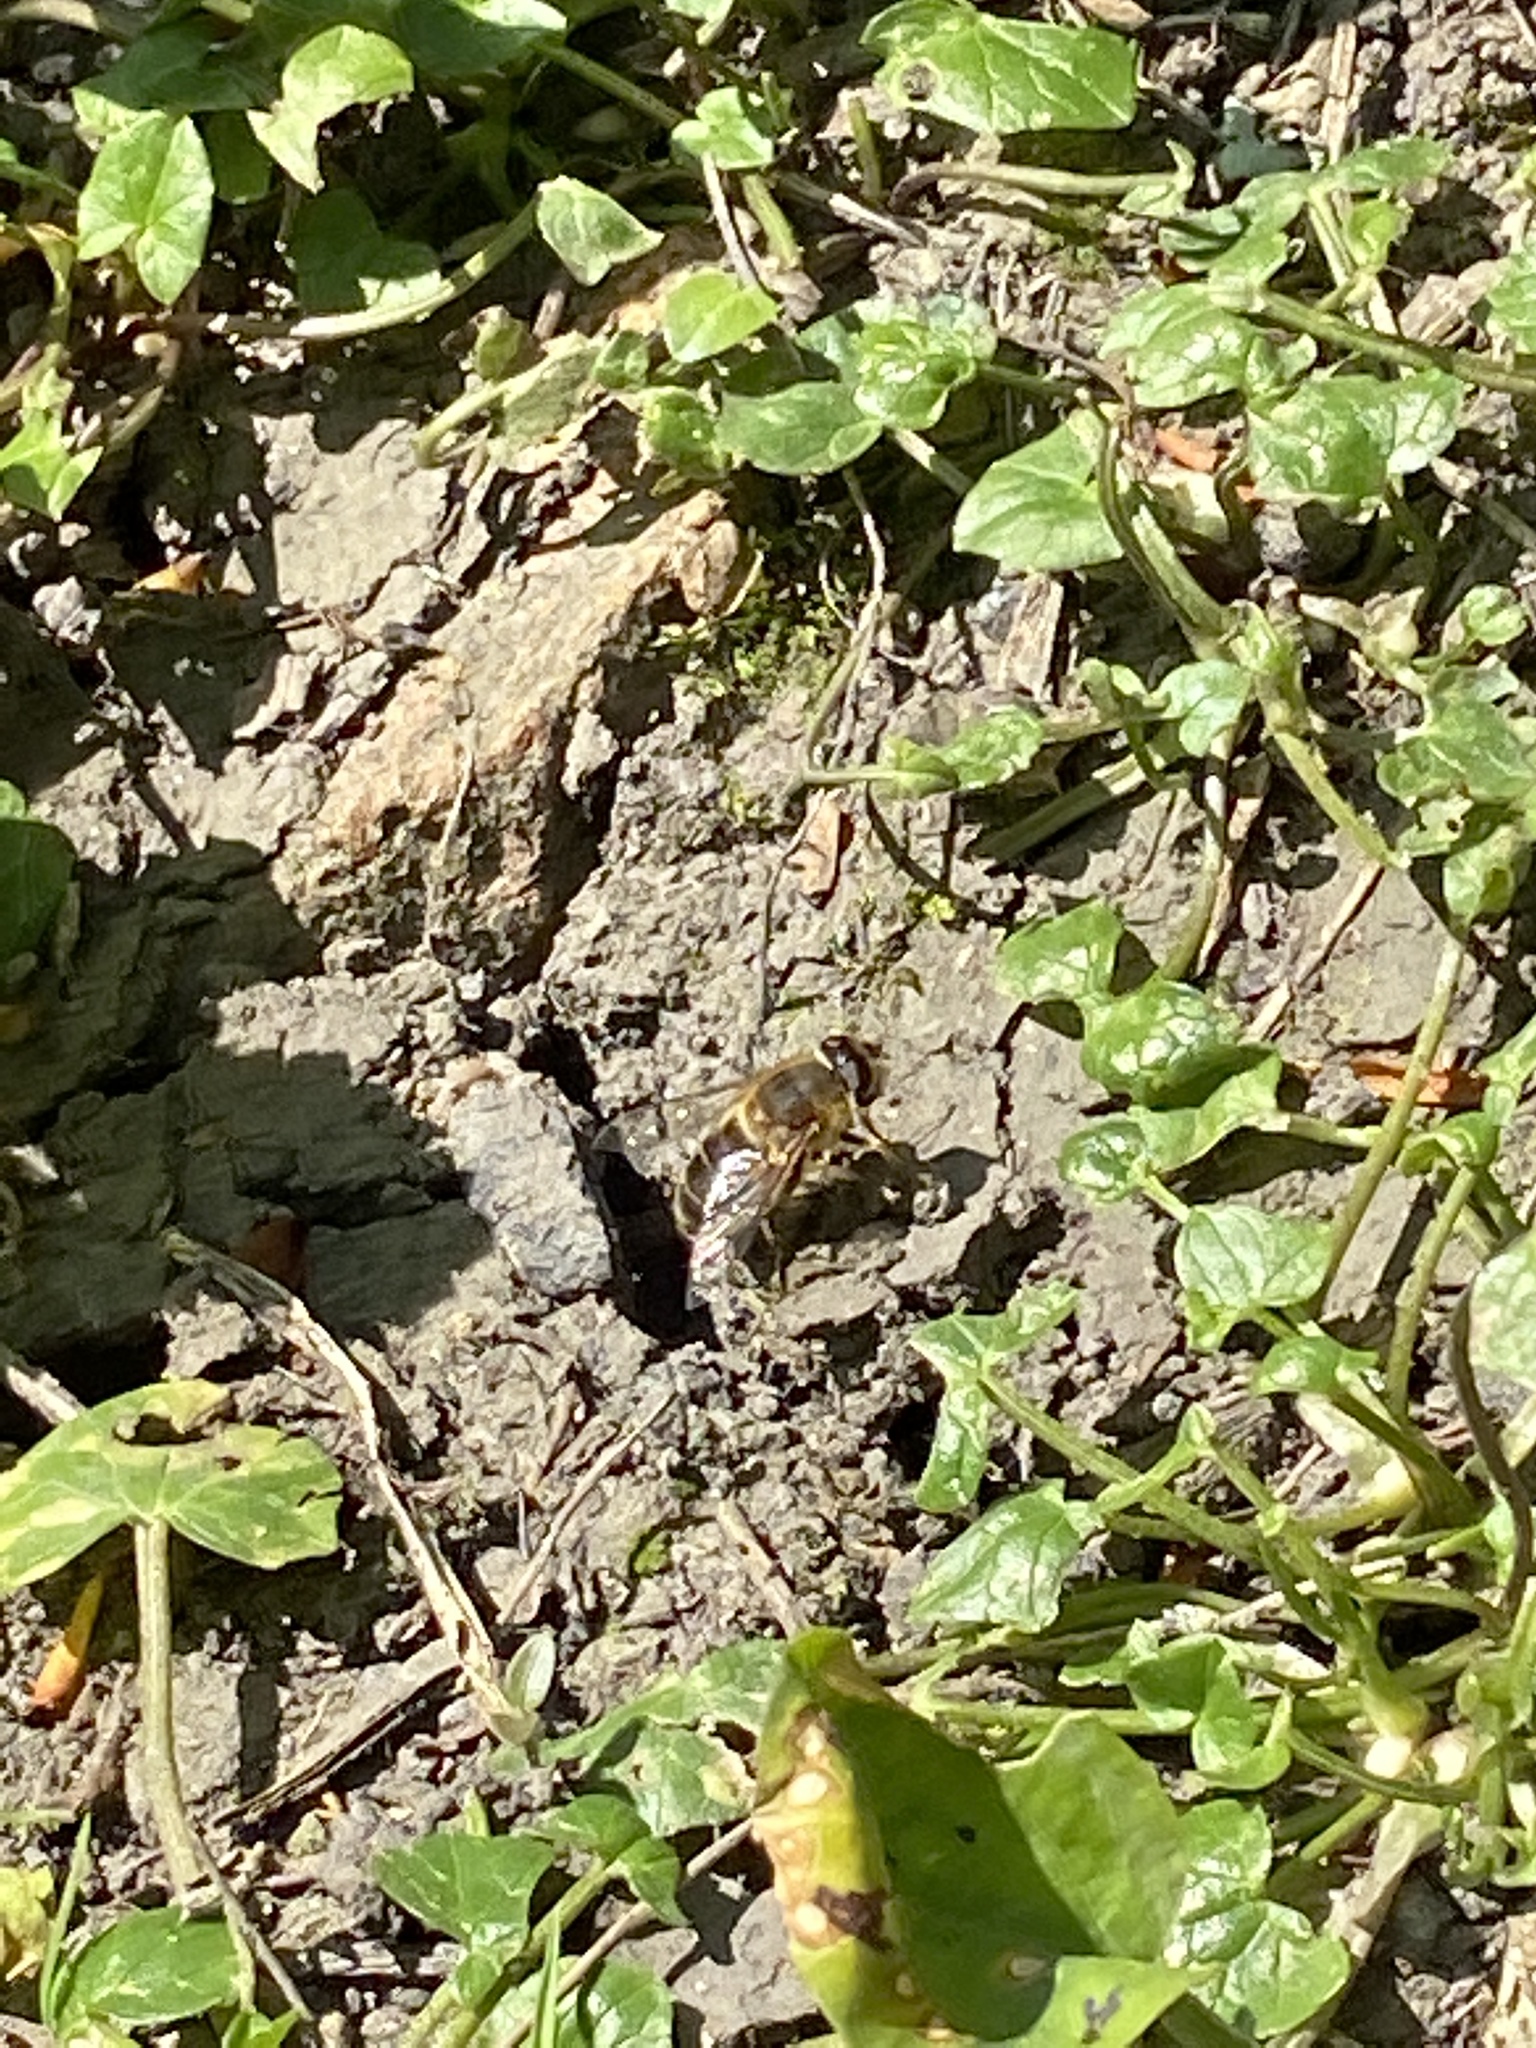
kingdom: Animalia
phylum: Arthropoda
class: Insecta
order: Diptera
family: Syrphidae
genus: Eristalis
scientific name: Eristalis
